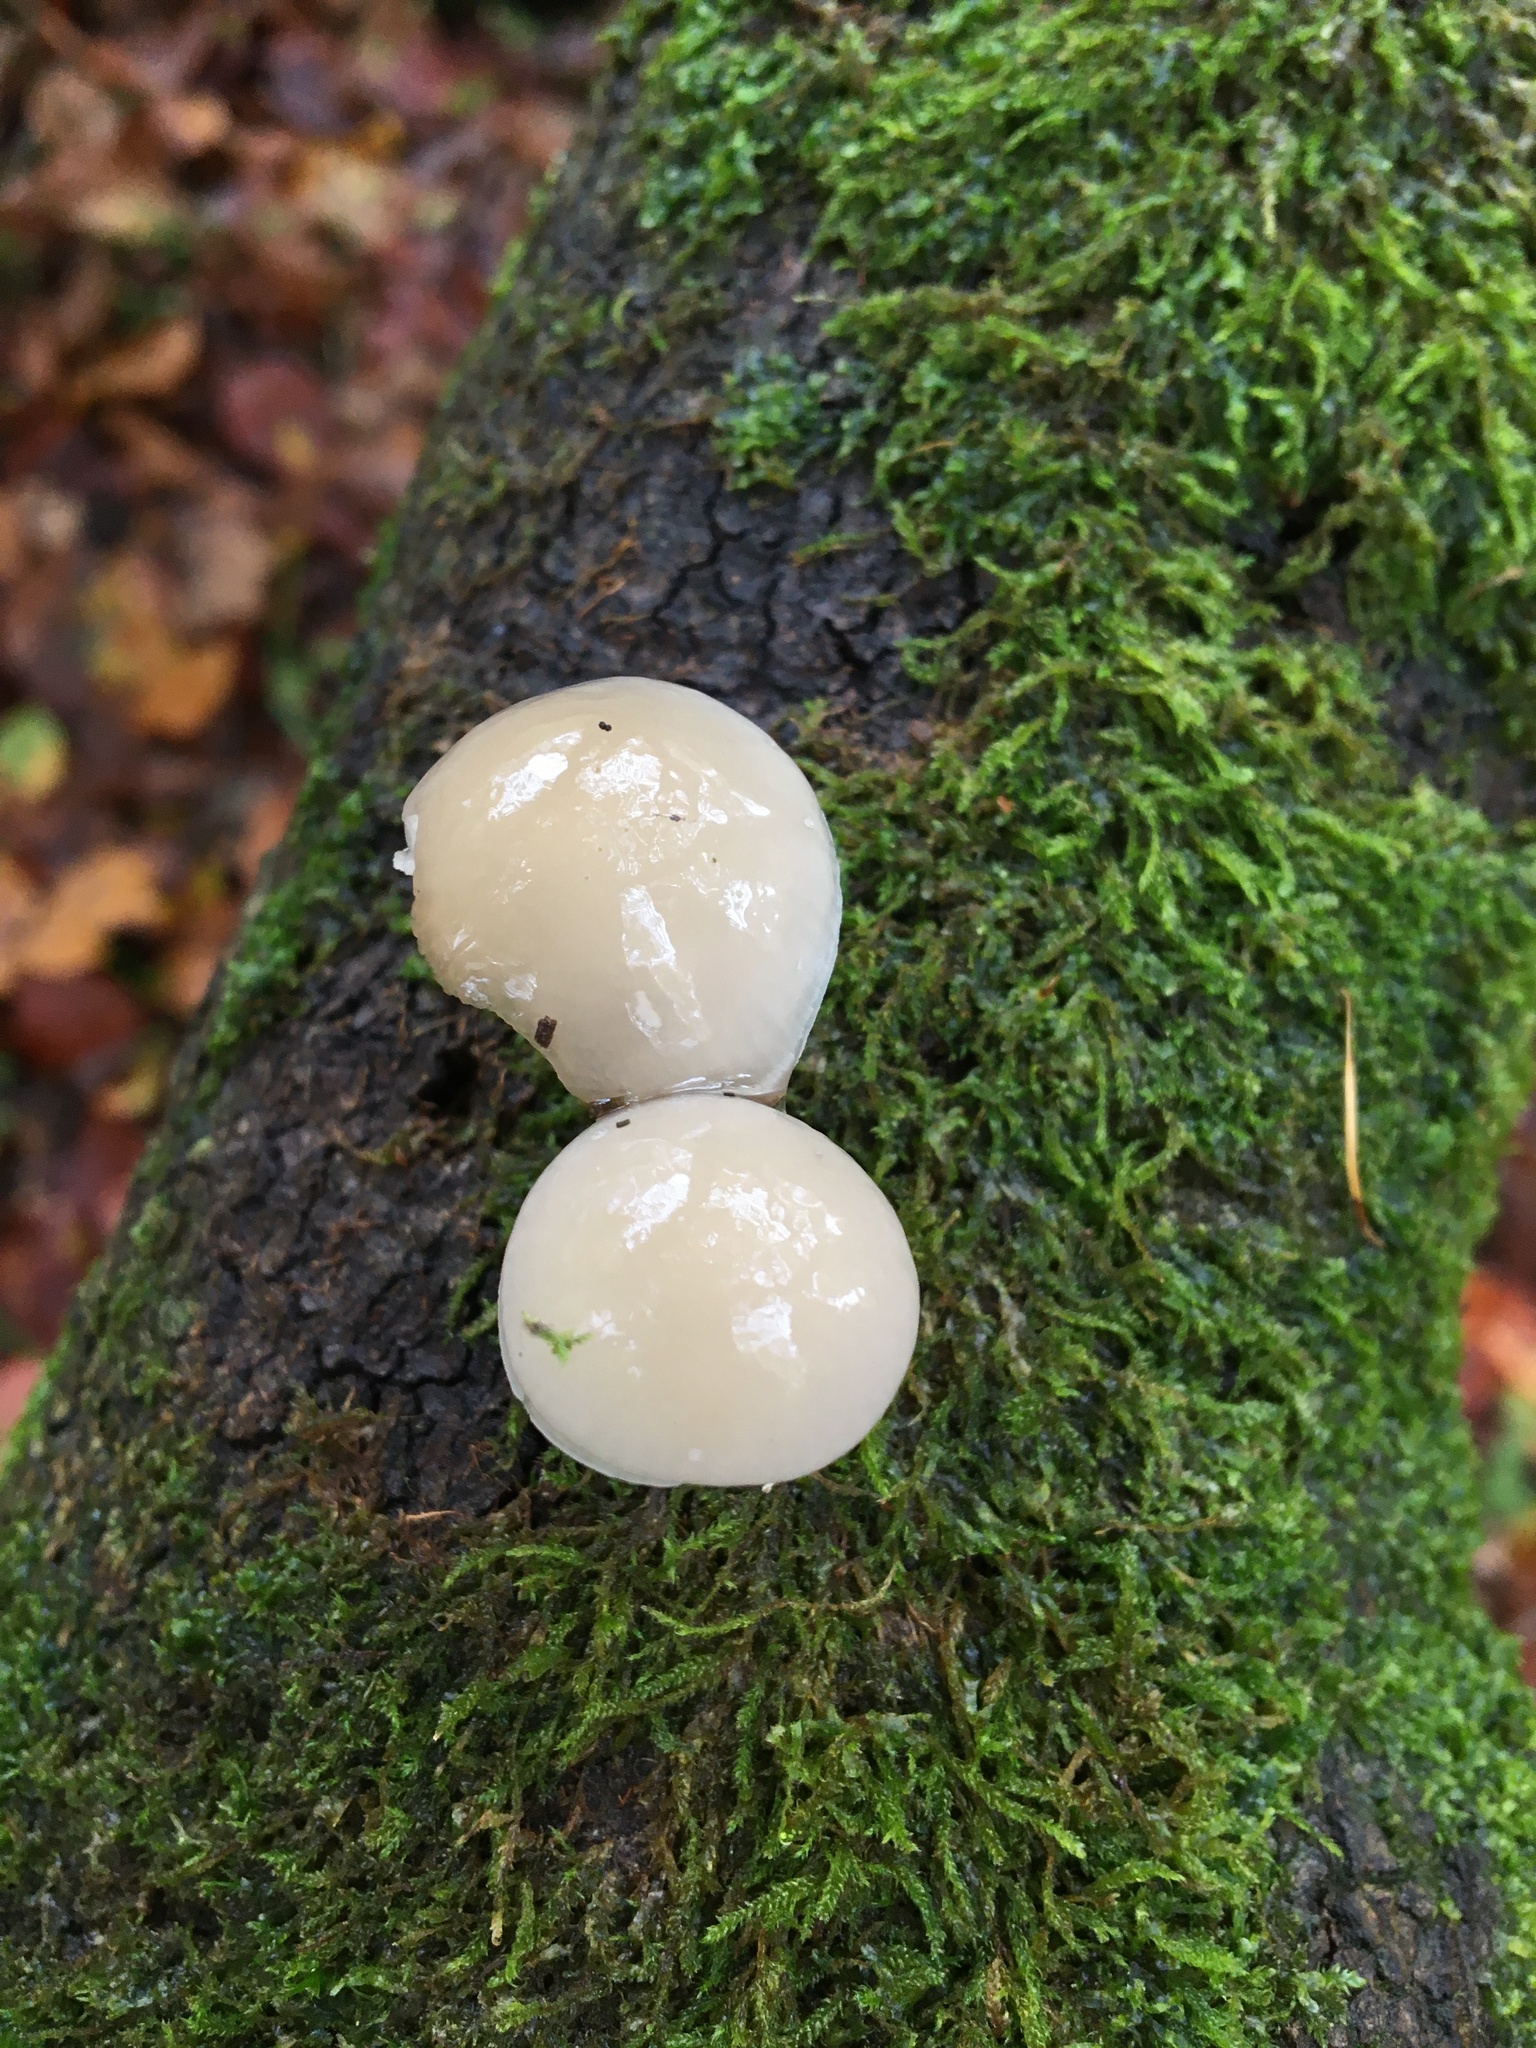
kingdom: Fungi
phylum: Basidiomycota
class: Agaricomycetes
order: Agaricales
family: Physalacriaceae
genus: Mucidula
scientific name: Mucidula mucida
